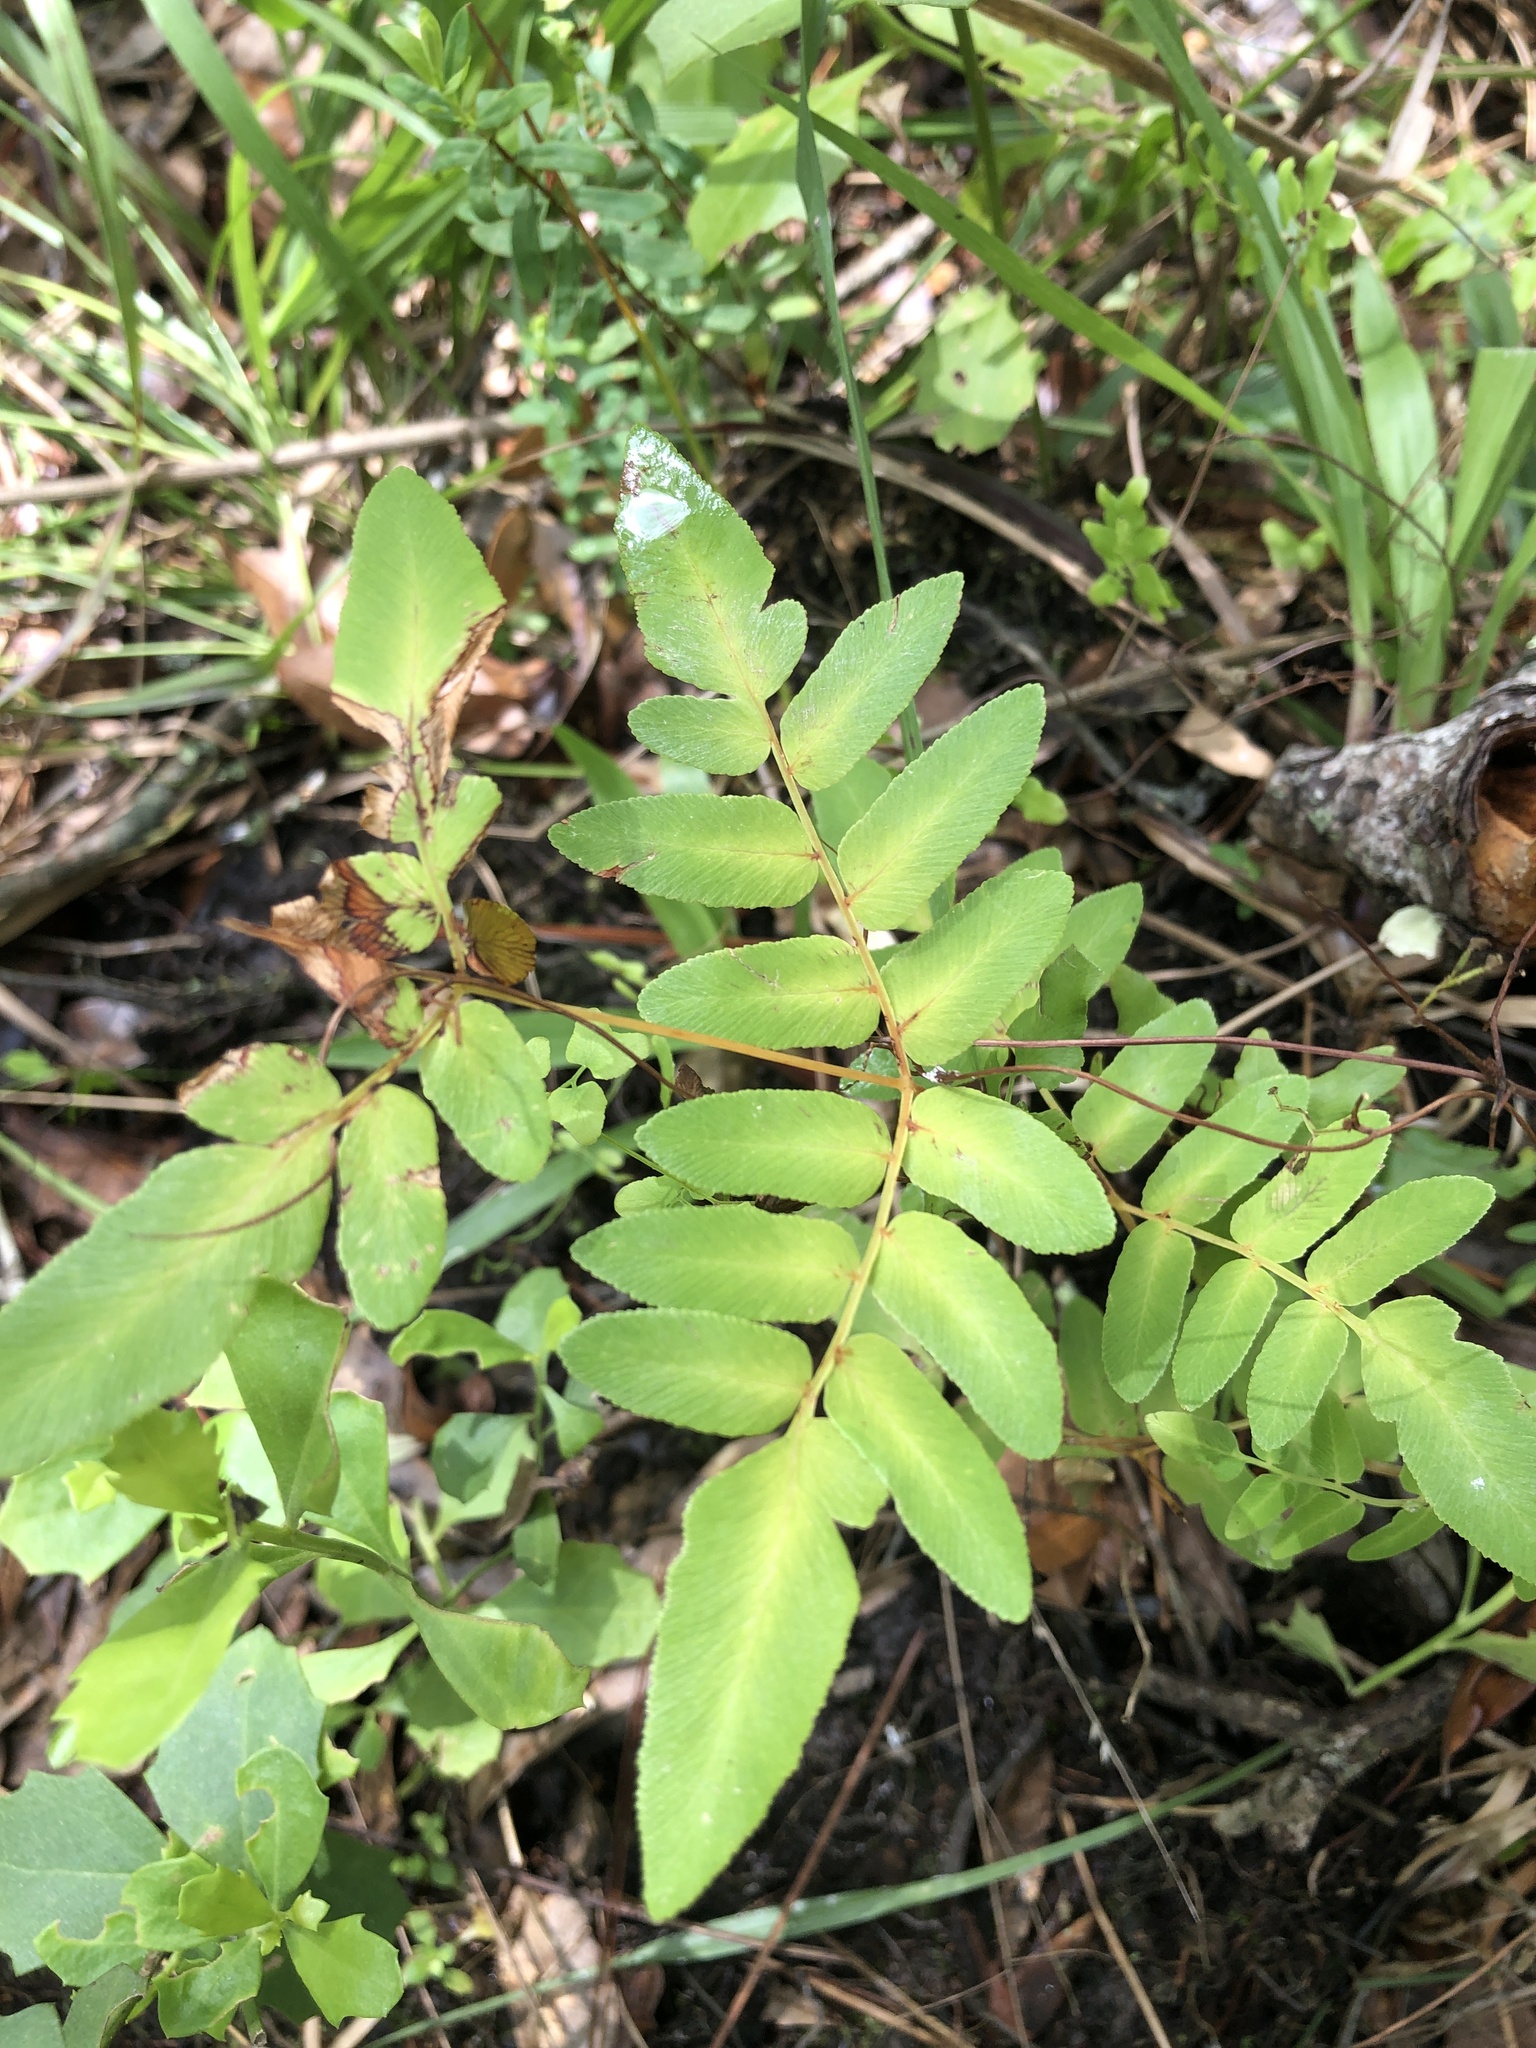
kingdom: Plantae
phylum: Tracheophyta
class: Polypodiopsida
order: Osmundales
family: Osmundaceae
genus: Osmunda
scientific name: Osmunda spectabilis
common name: American royal fern
